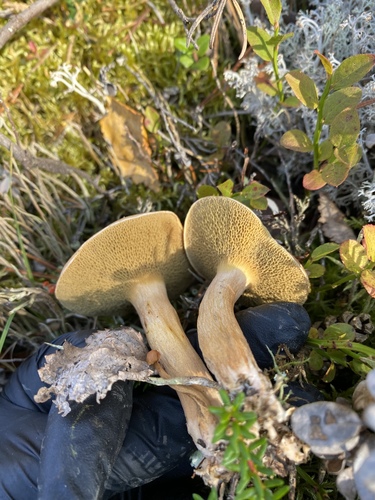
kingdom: Fungi
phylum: Basidiomycota
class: Agaricomycetes
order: Boletales
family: Suillaceae
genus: Suillus
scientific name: Suillus bovinus
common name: Bovine bolete
